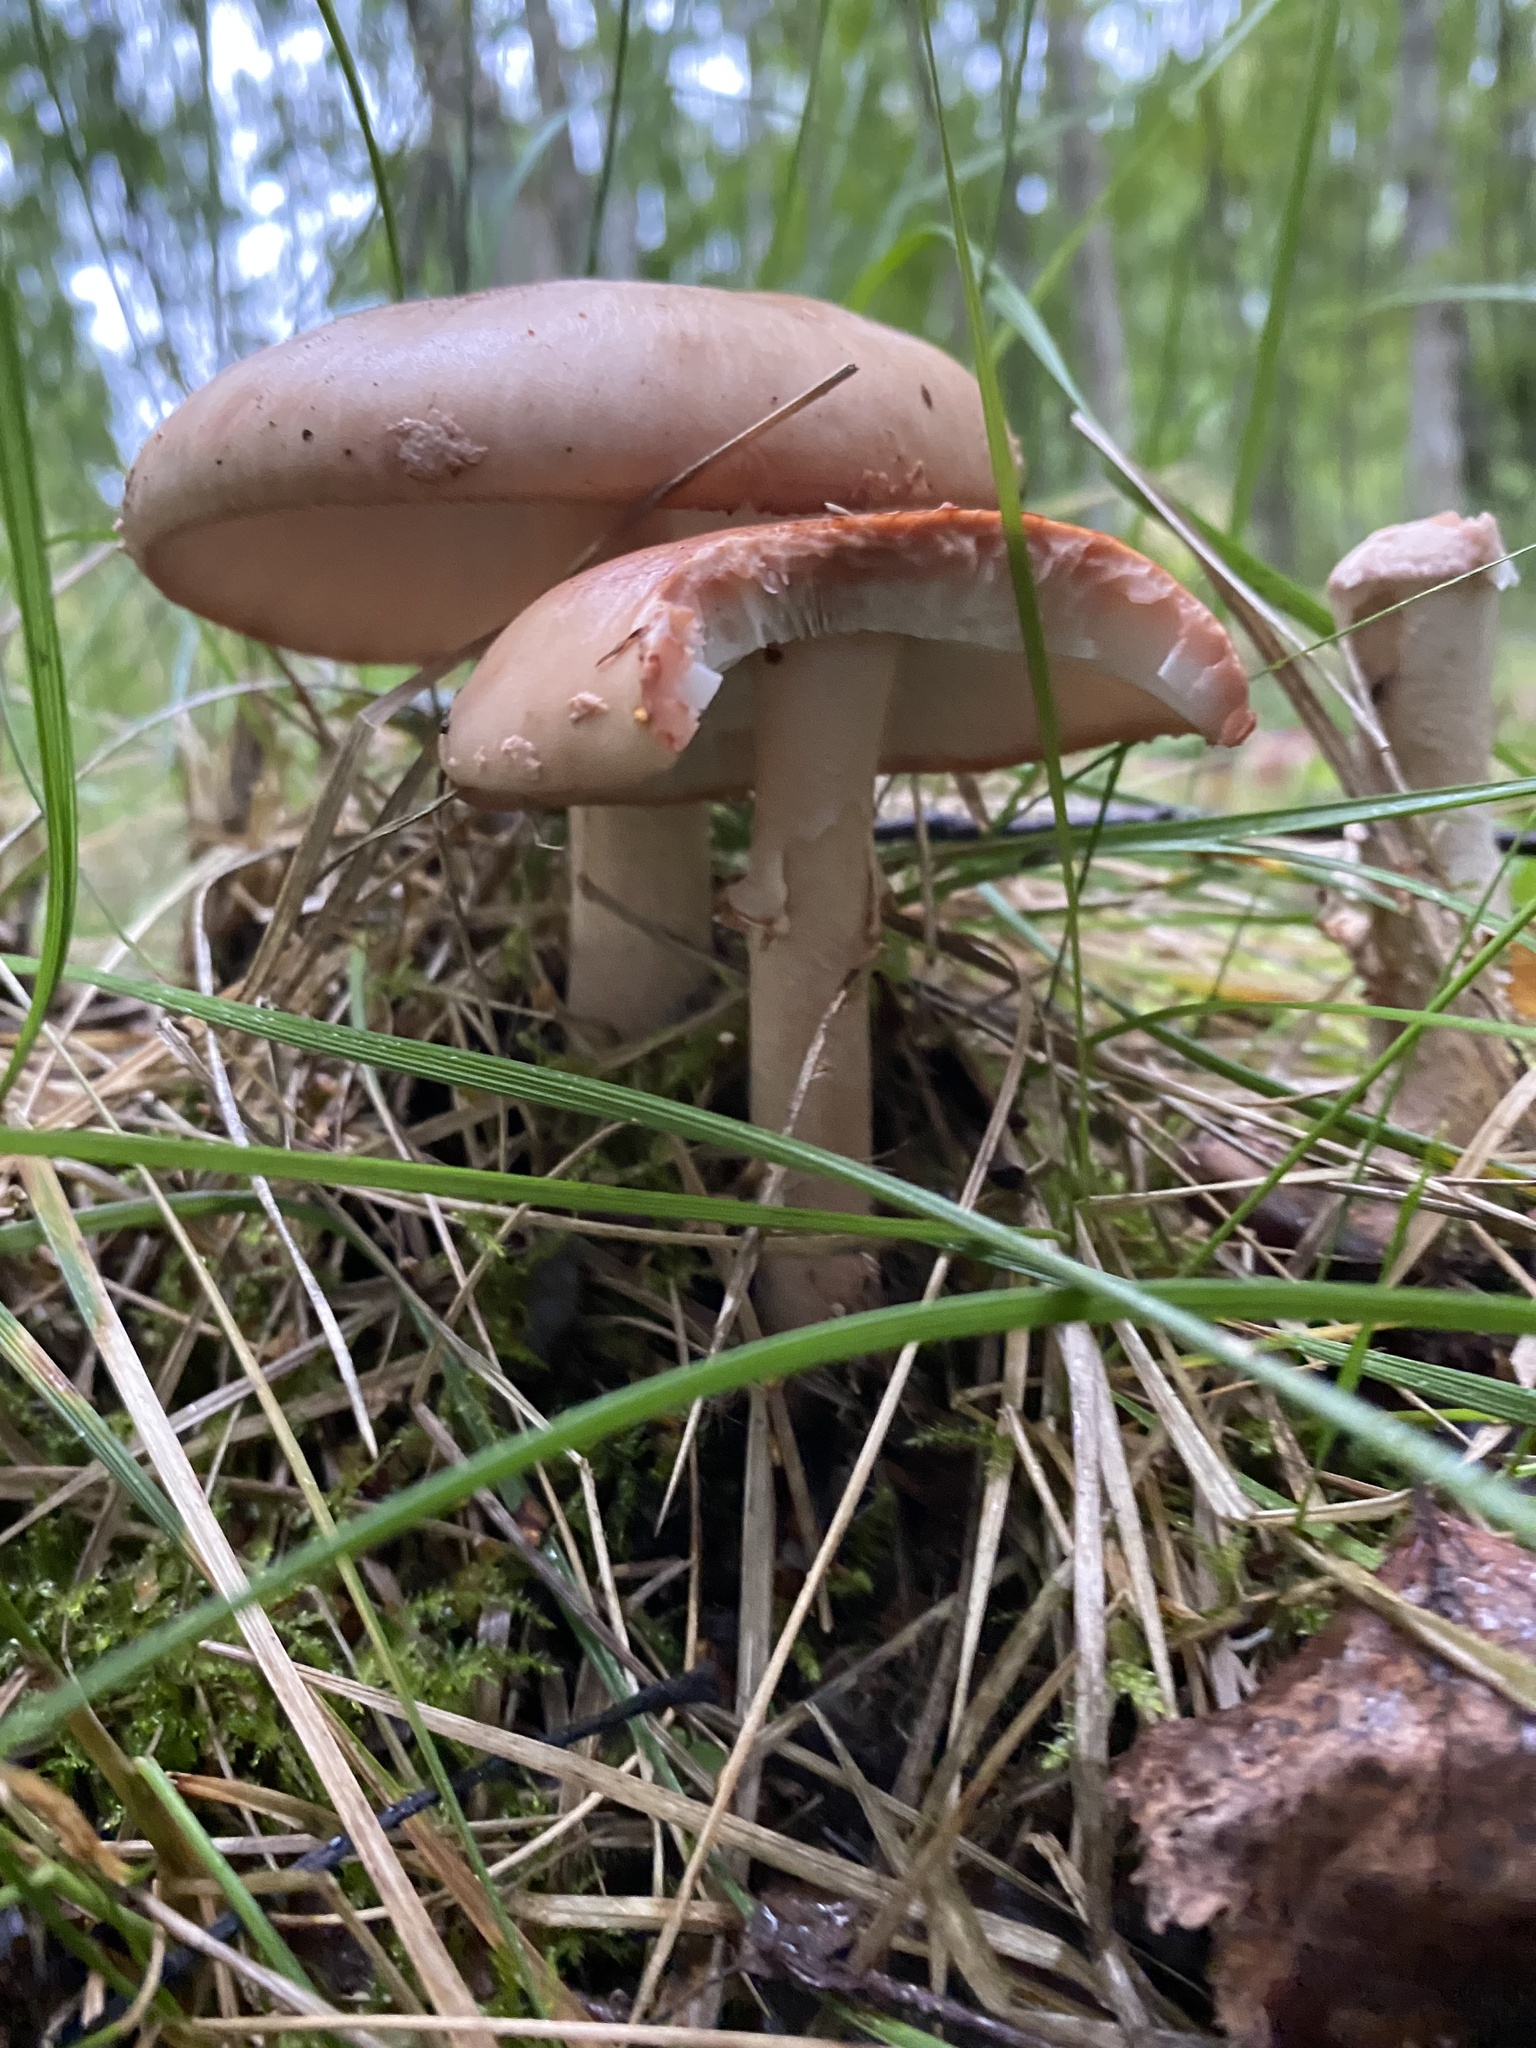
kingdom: Fungi
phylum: Basidiomycota
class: Agaricomycetes
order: Agaricales
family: Amanitaceae
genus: Amanita
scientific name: Amanita rubescens
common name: Blusher
